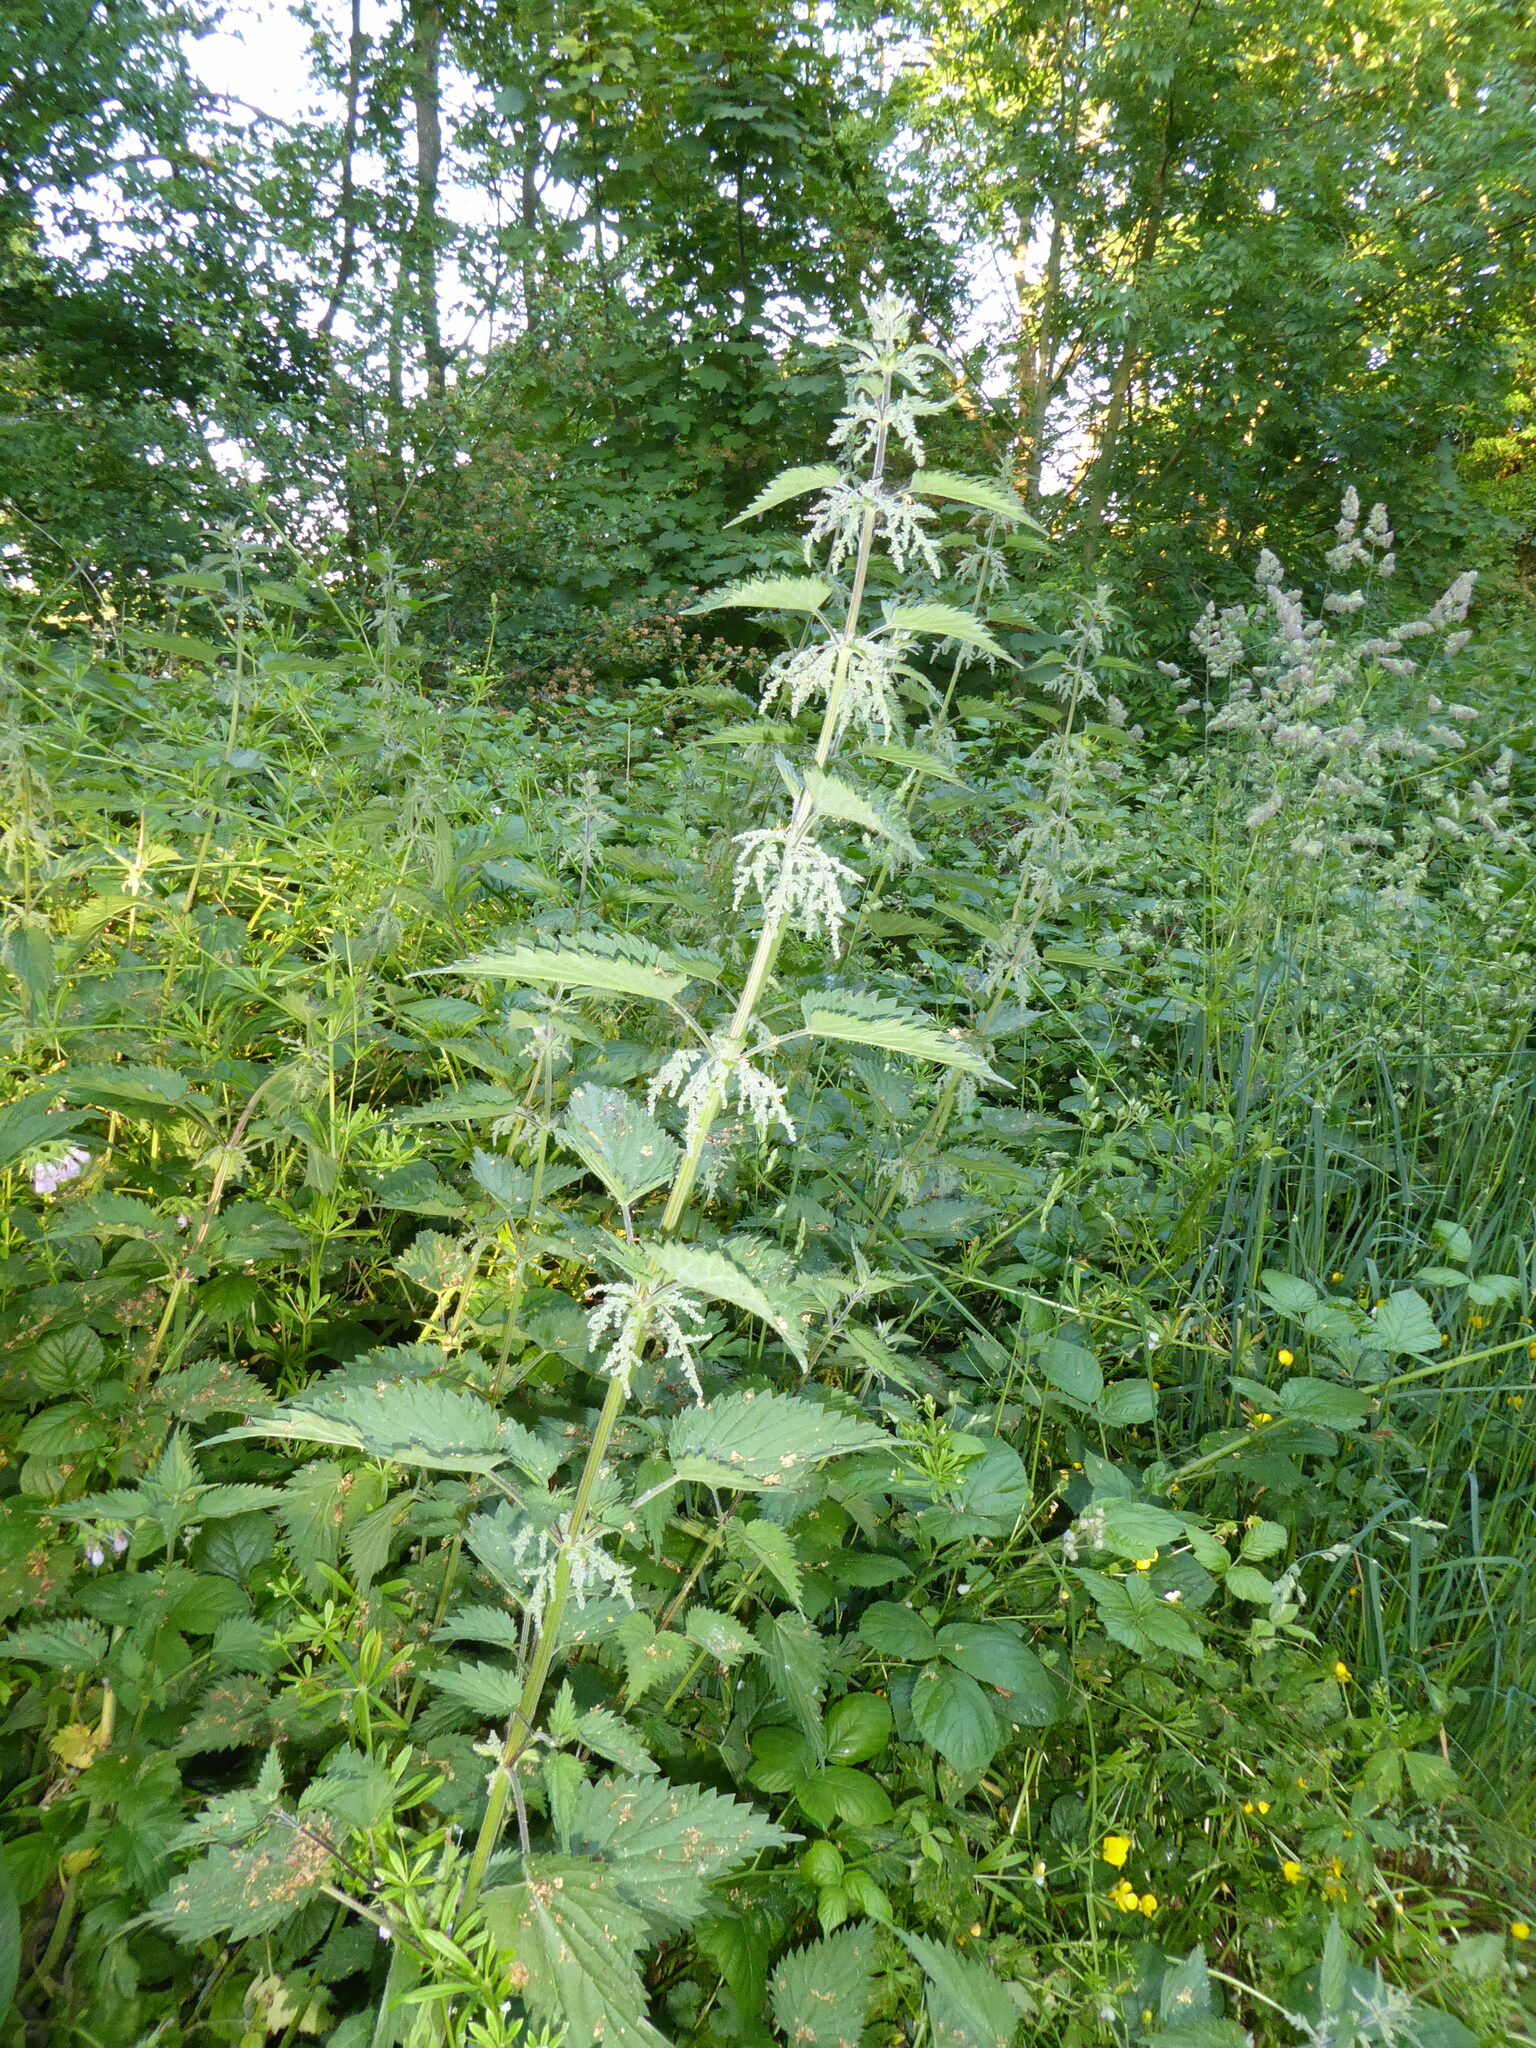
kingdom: Plantae
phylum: Tracheophyta
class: Magnoliopsida
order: Rosales
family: Urticaceae
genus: Urtica
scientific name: Urtica dioica
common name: Common nettle
